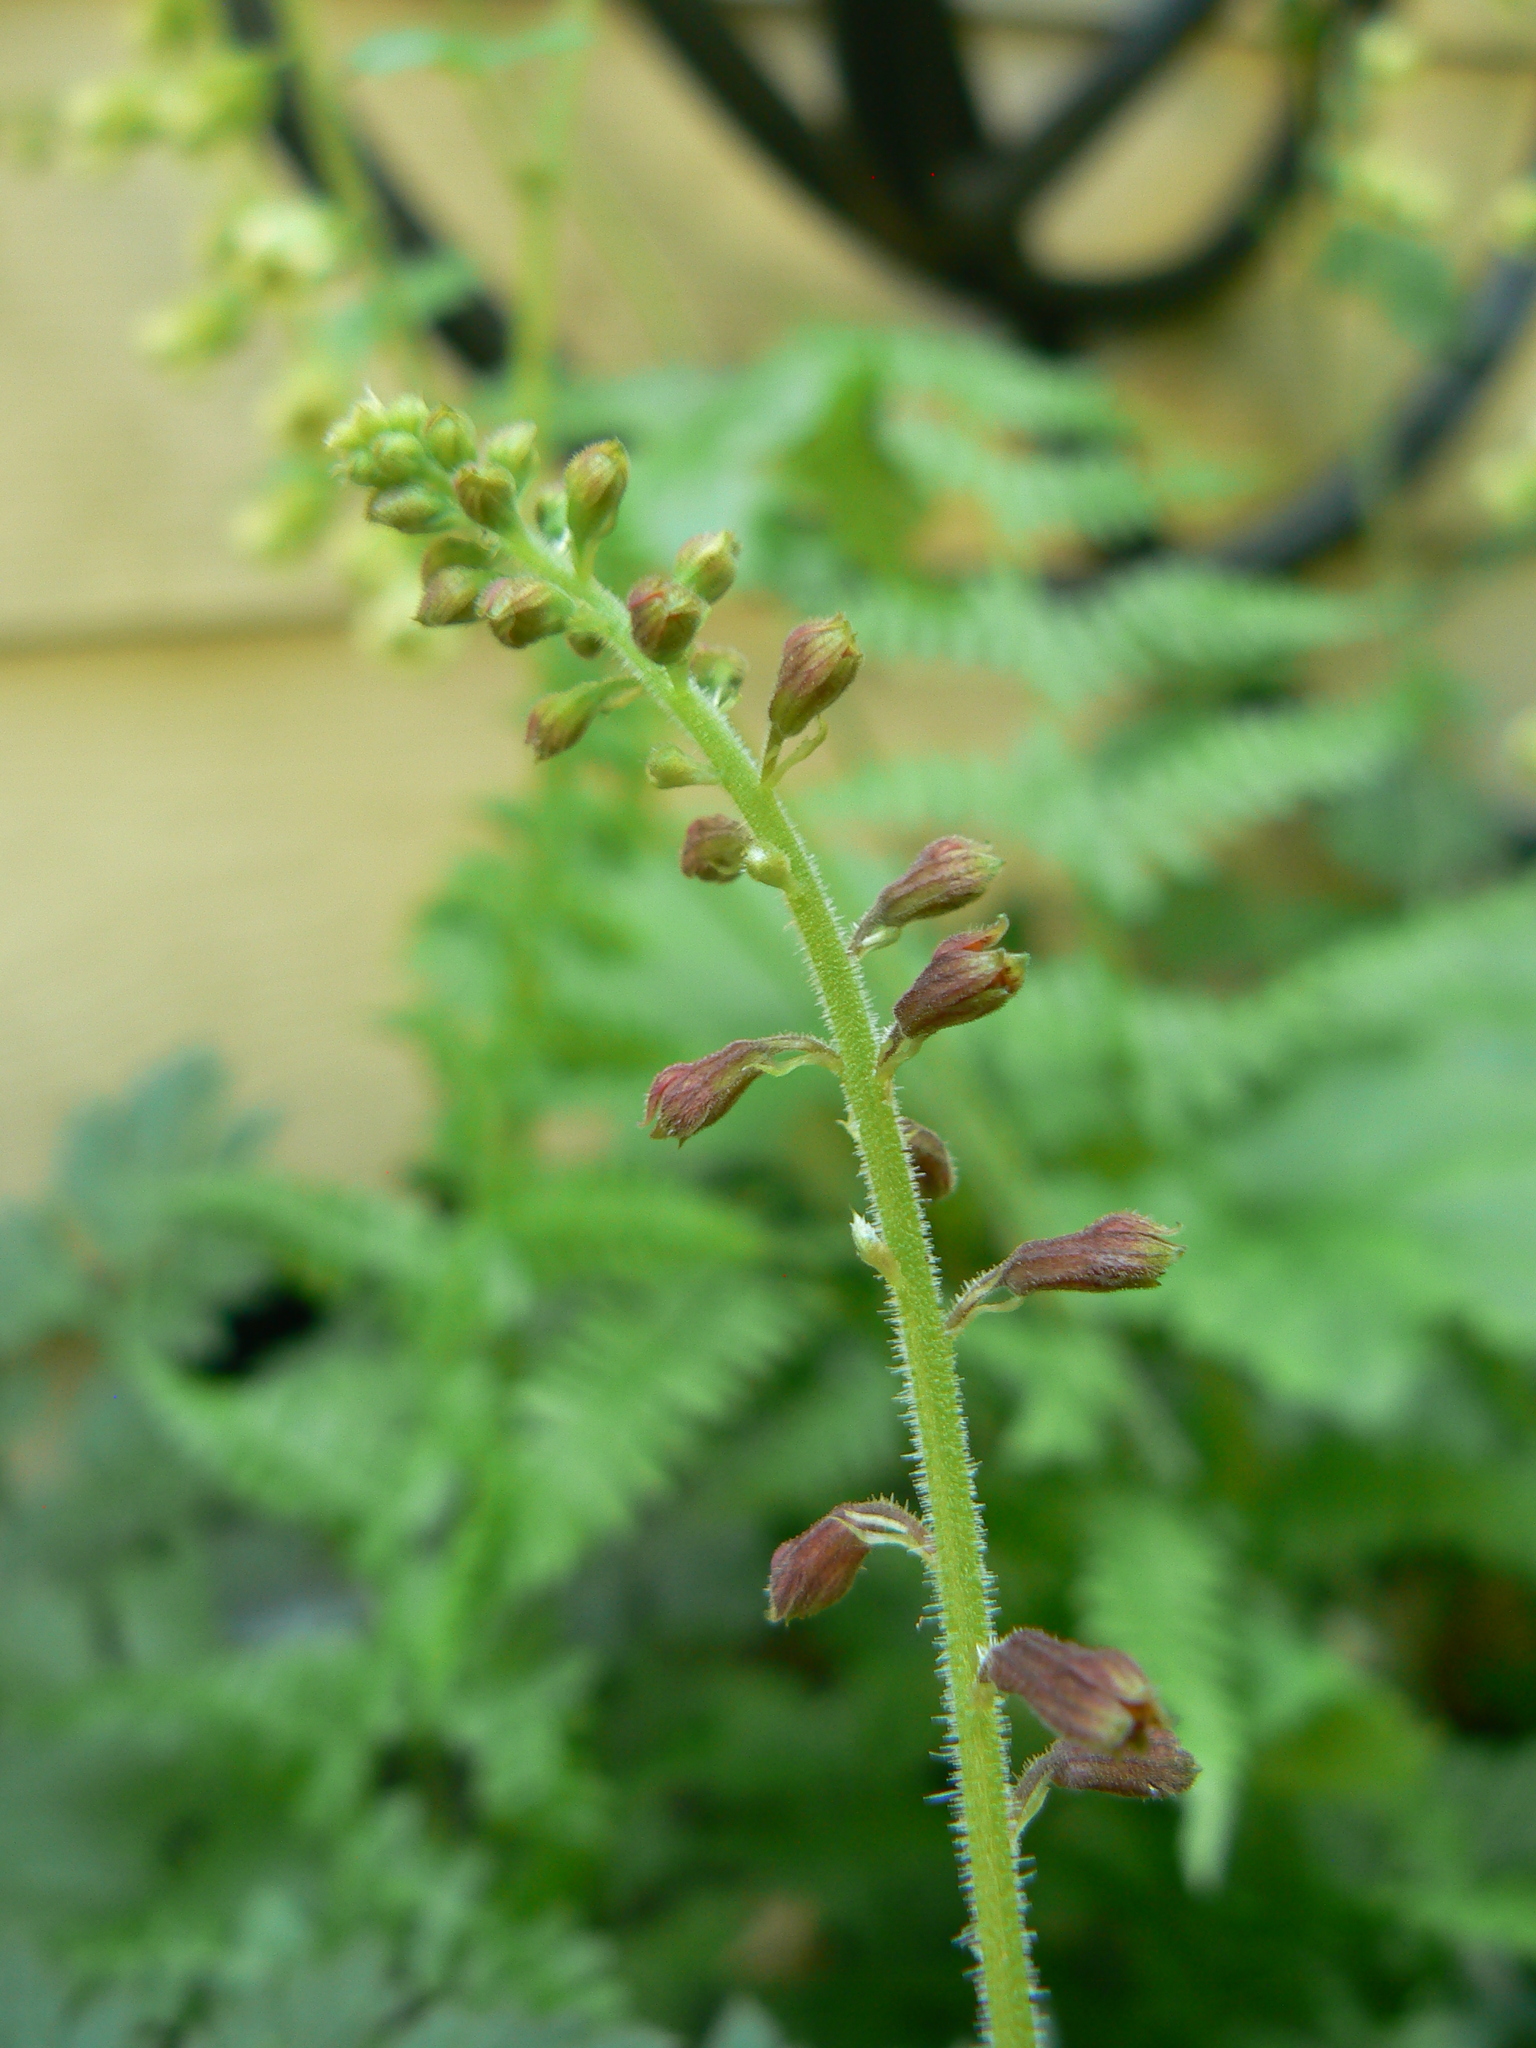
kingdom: Plantae
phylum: Tracheophyta
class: Magnoliopsida
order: Saxifragales
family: Saxifragaceae
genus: Tolmiea
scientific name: Tolmiea menziesii
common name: Pick-a-back-plant
